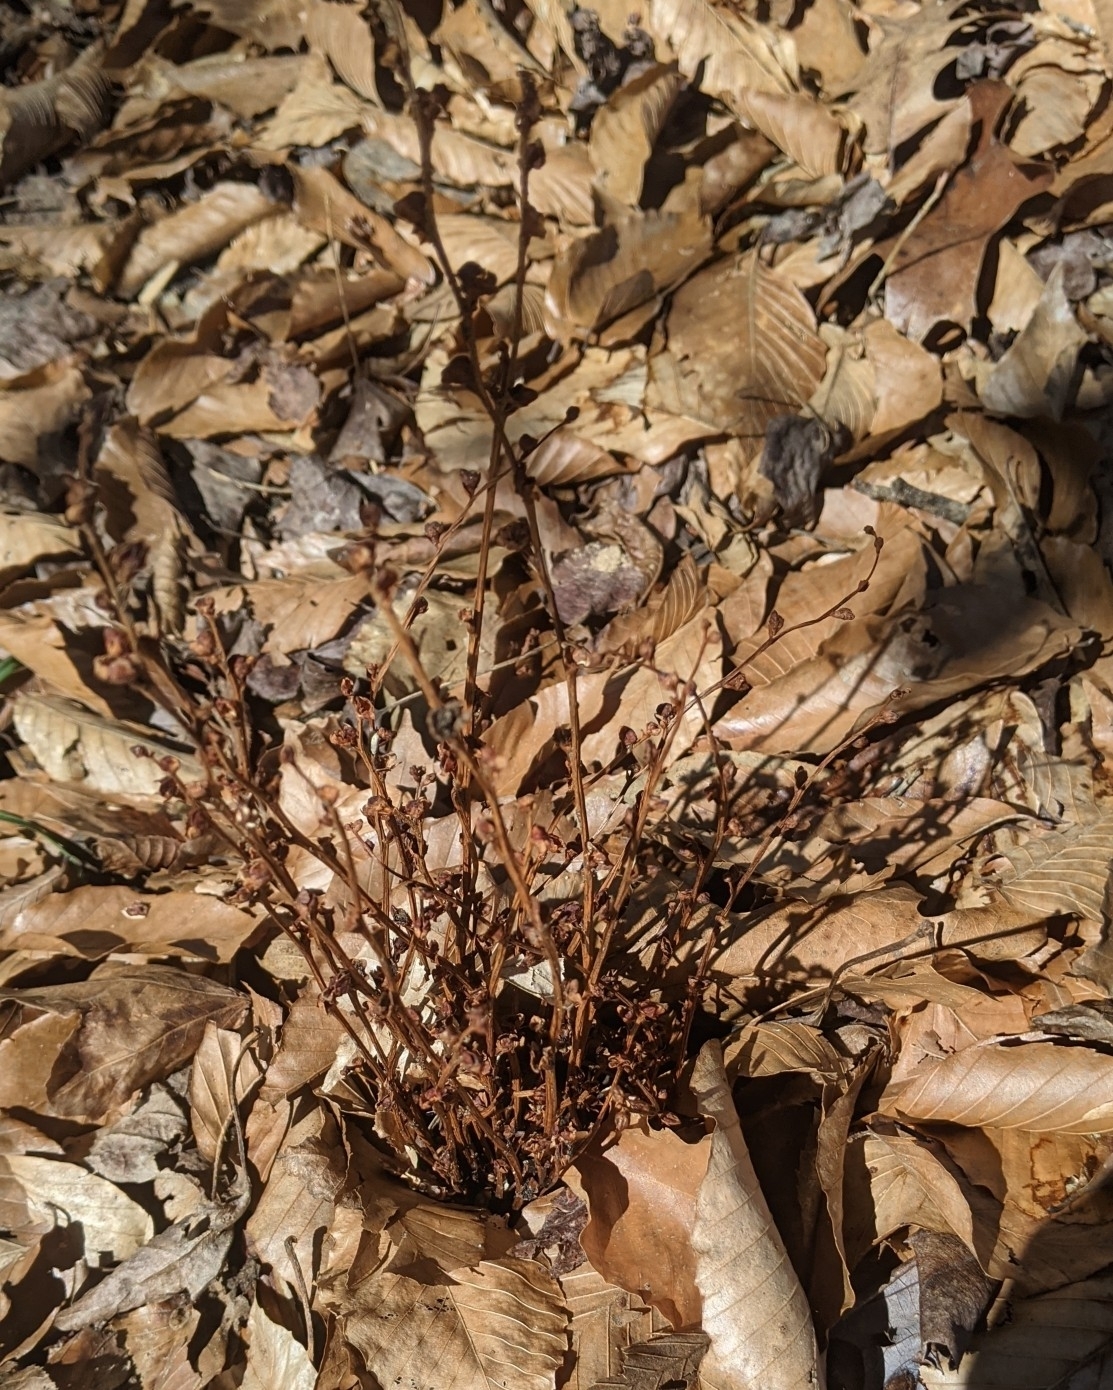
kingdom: Plantae
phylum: Tracheophyta
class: Magnoliopsida
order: Lamiales
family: Orobanchaceae
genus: Epifagus
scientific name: Epifagus virginiana
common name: Beechdrops
